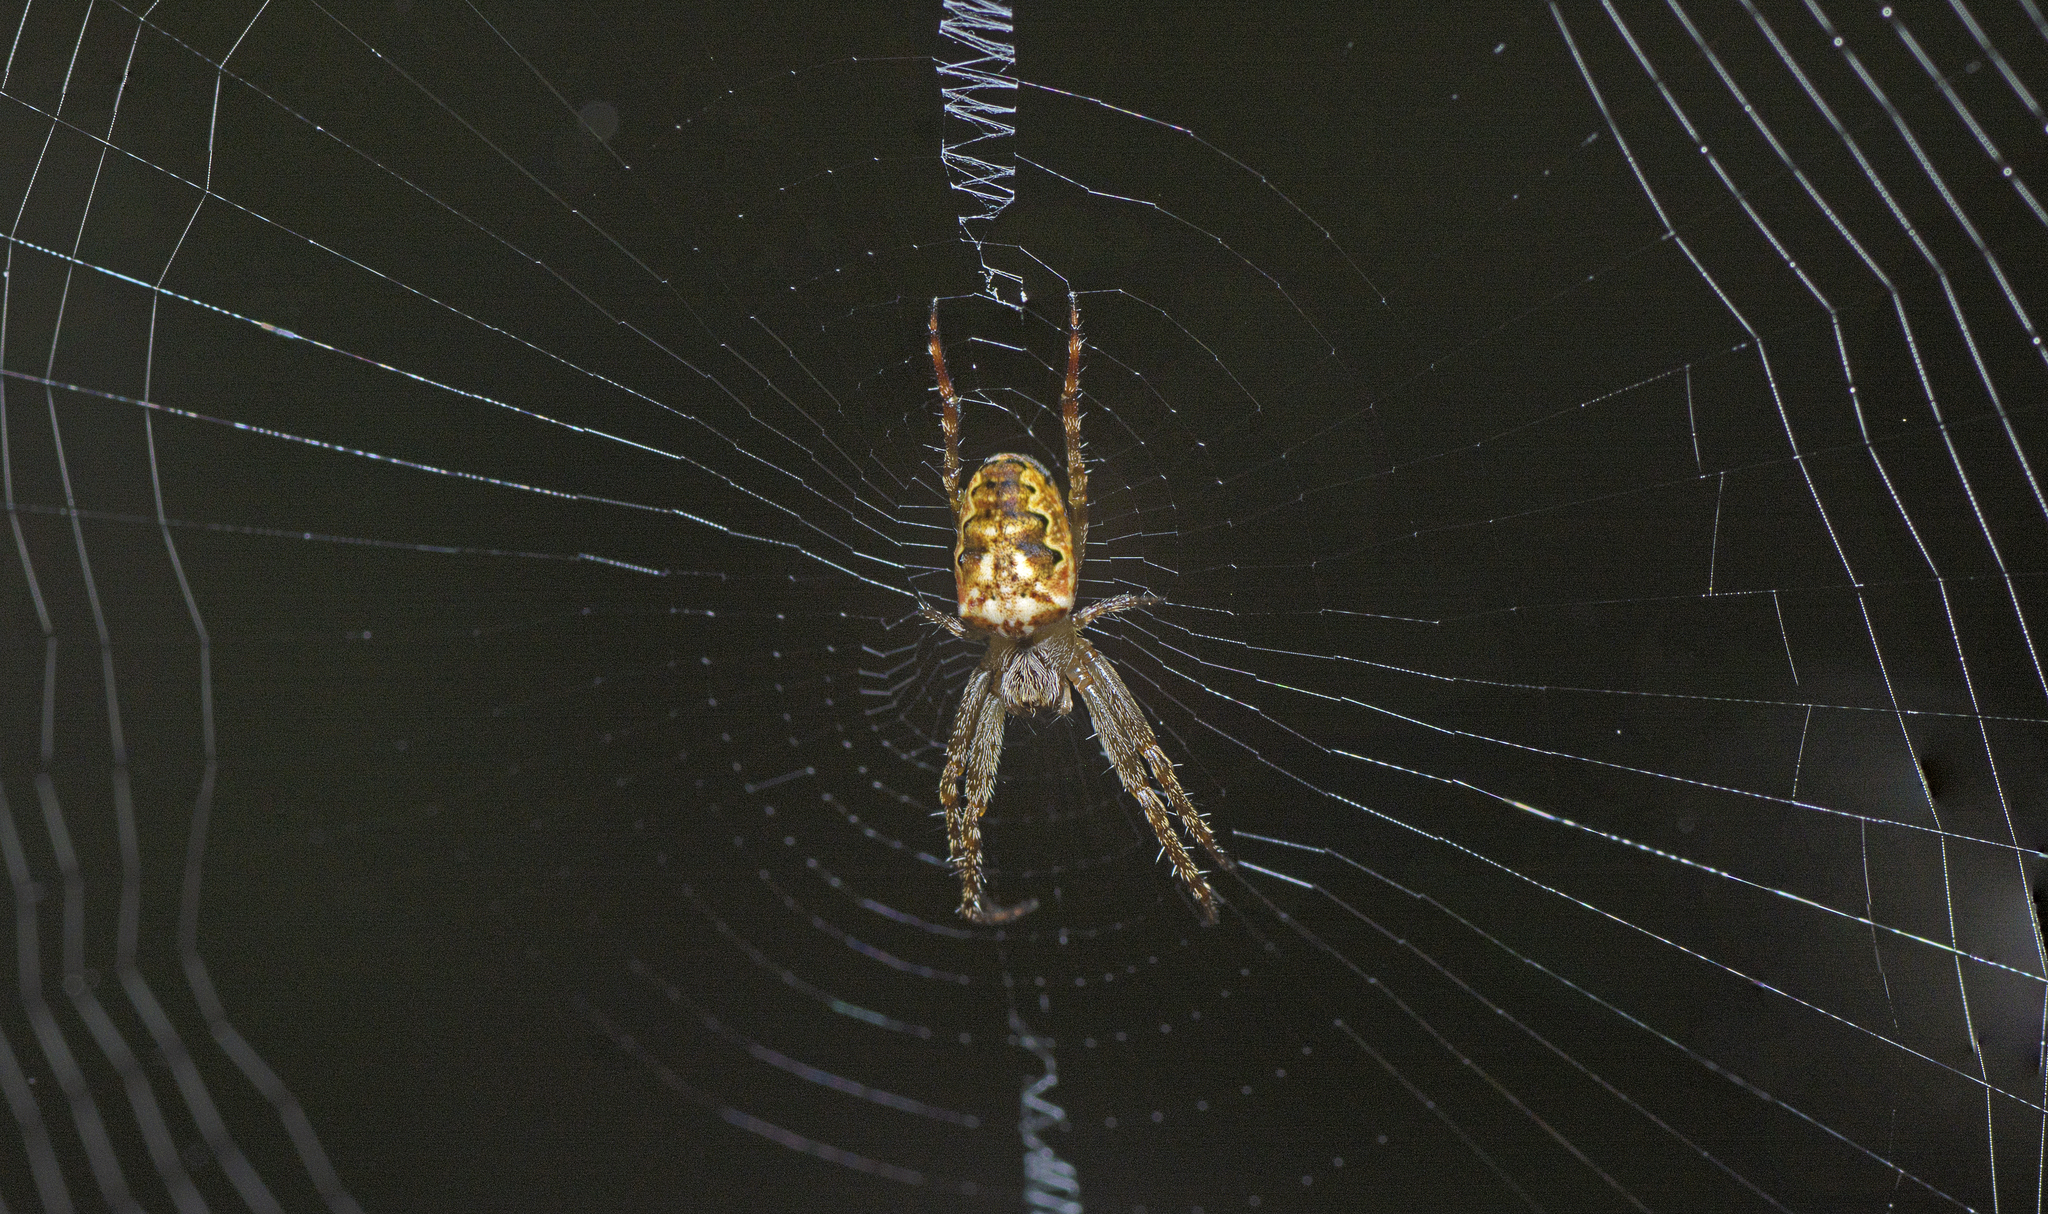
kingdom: Animalia
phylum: Arthropoda
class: Arachnida
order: Araneae
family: Araneidae
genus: Plebs
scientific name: Plebs eburnus
